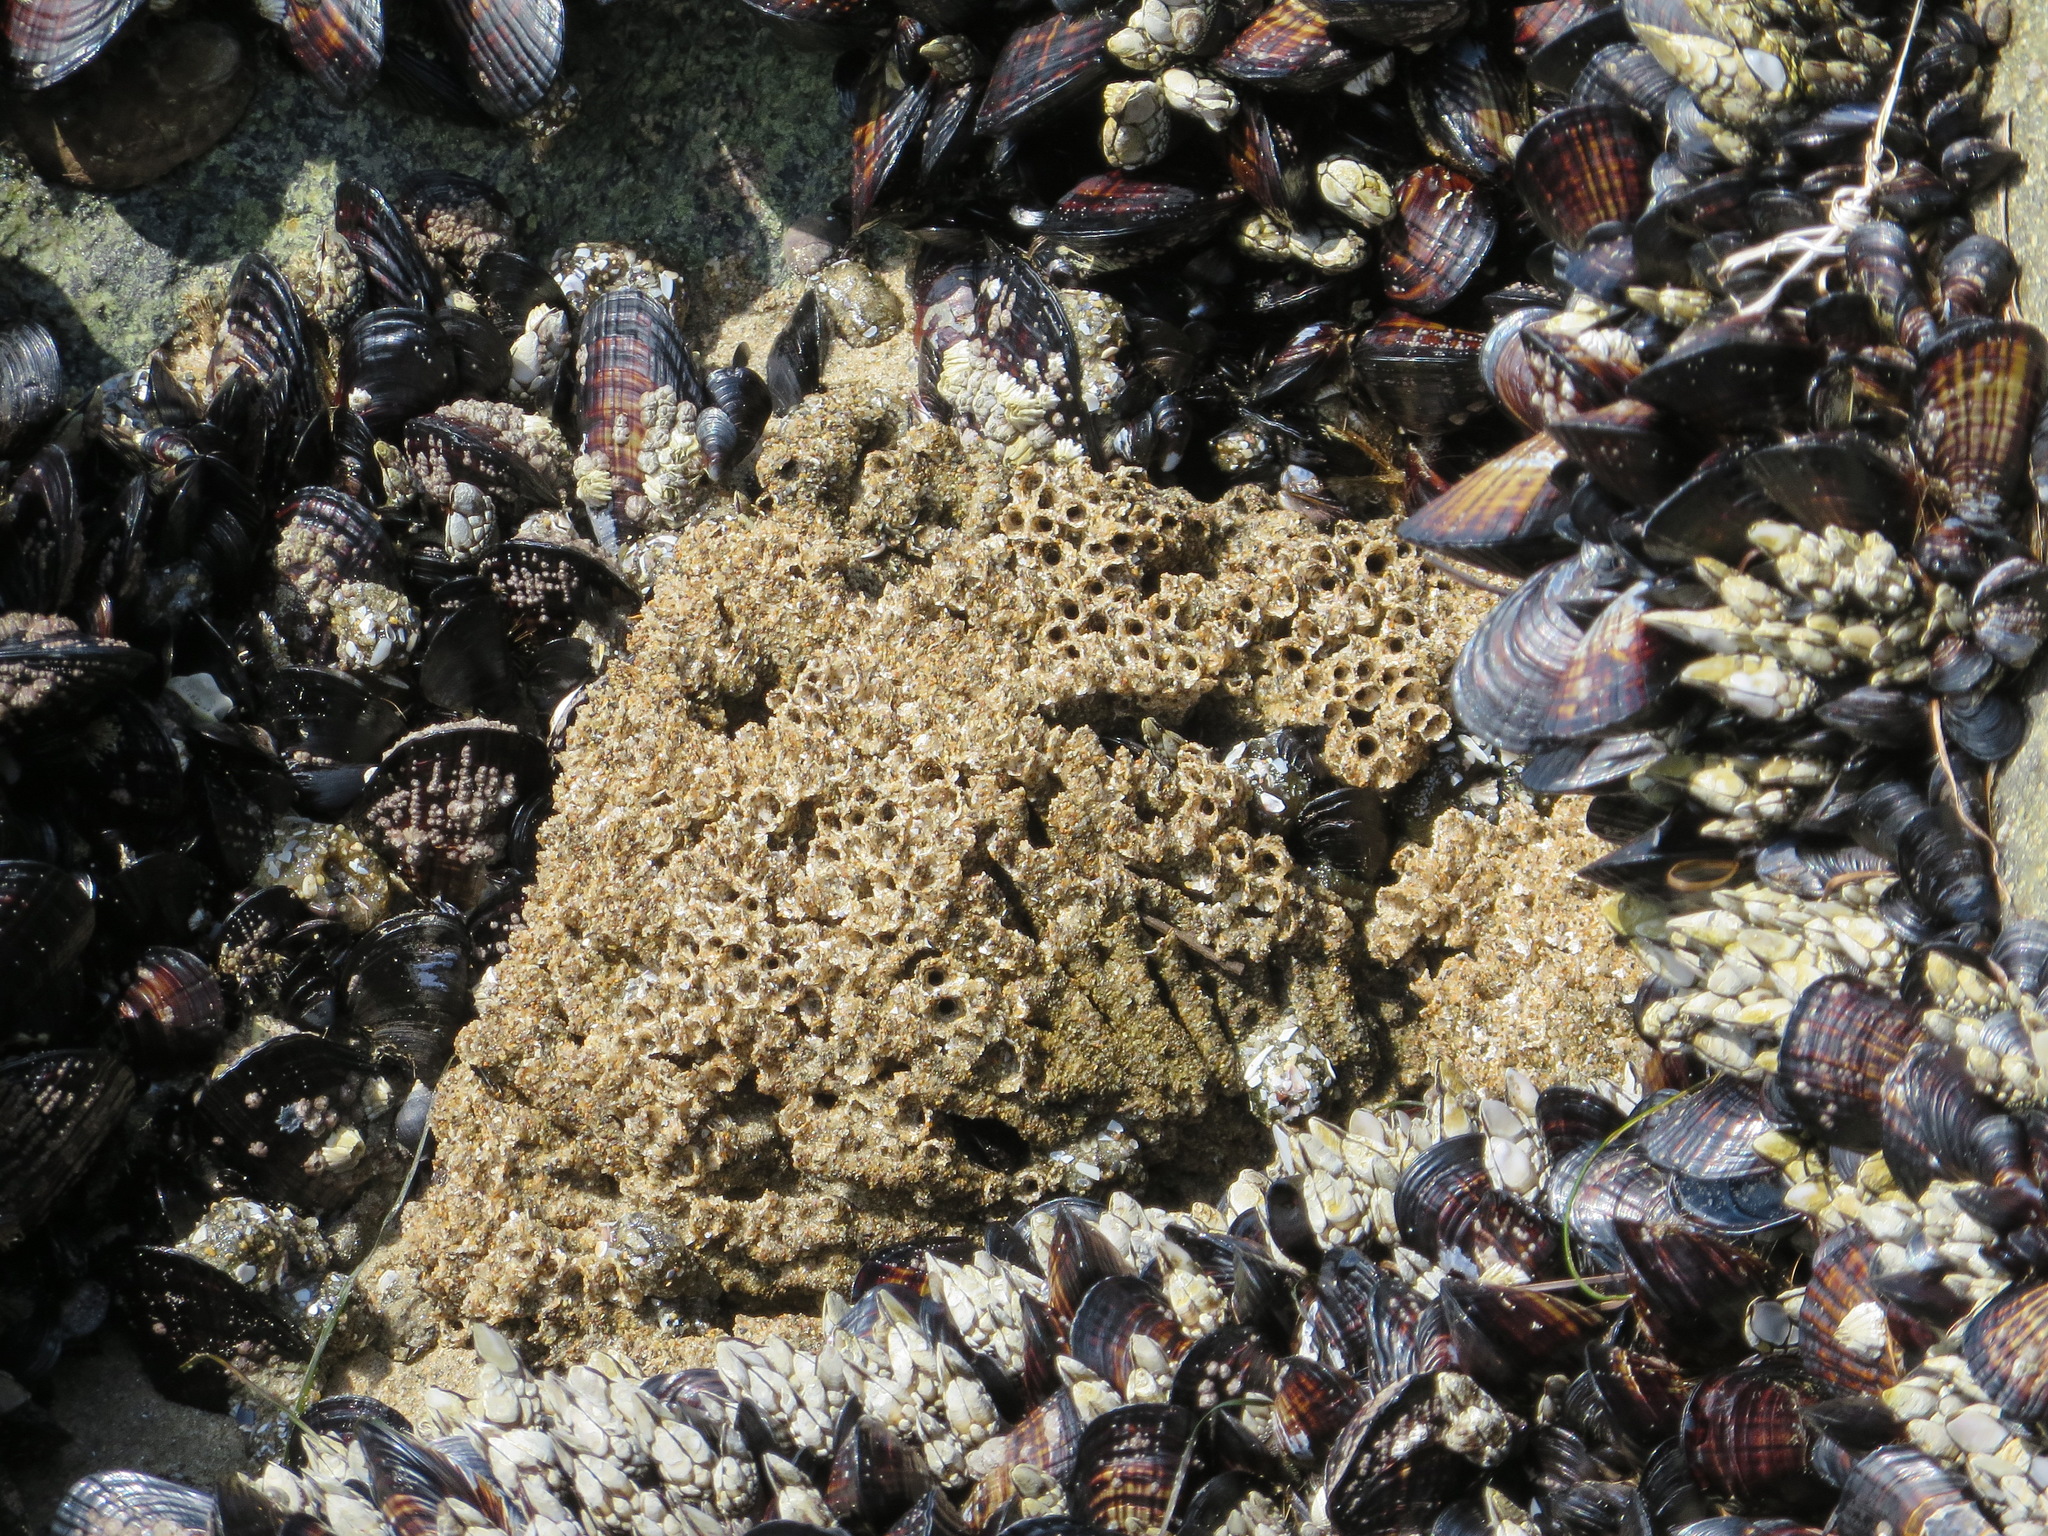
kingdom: Animalia
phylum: Annelida
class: Polychaeta
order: Sabellida
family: Sabellariidae
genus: Phragmatopoma
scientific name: Phragmatopoma californica
